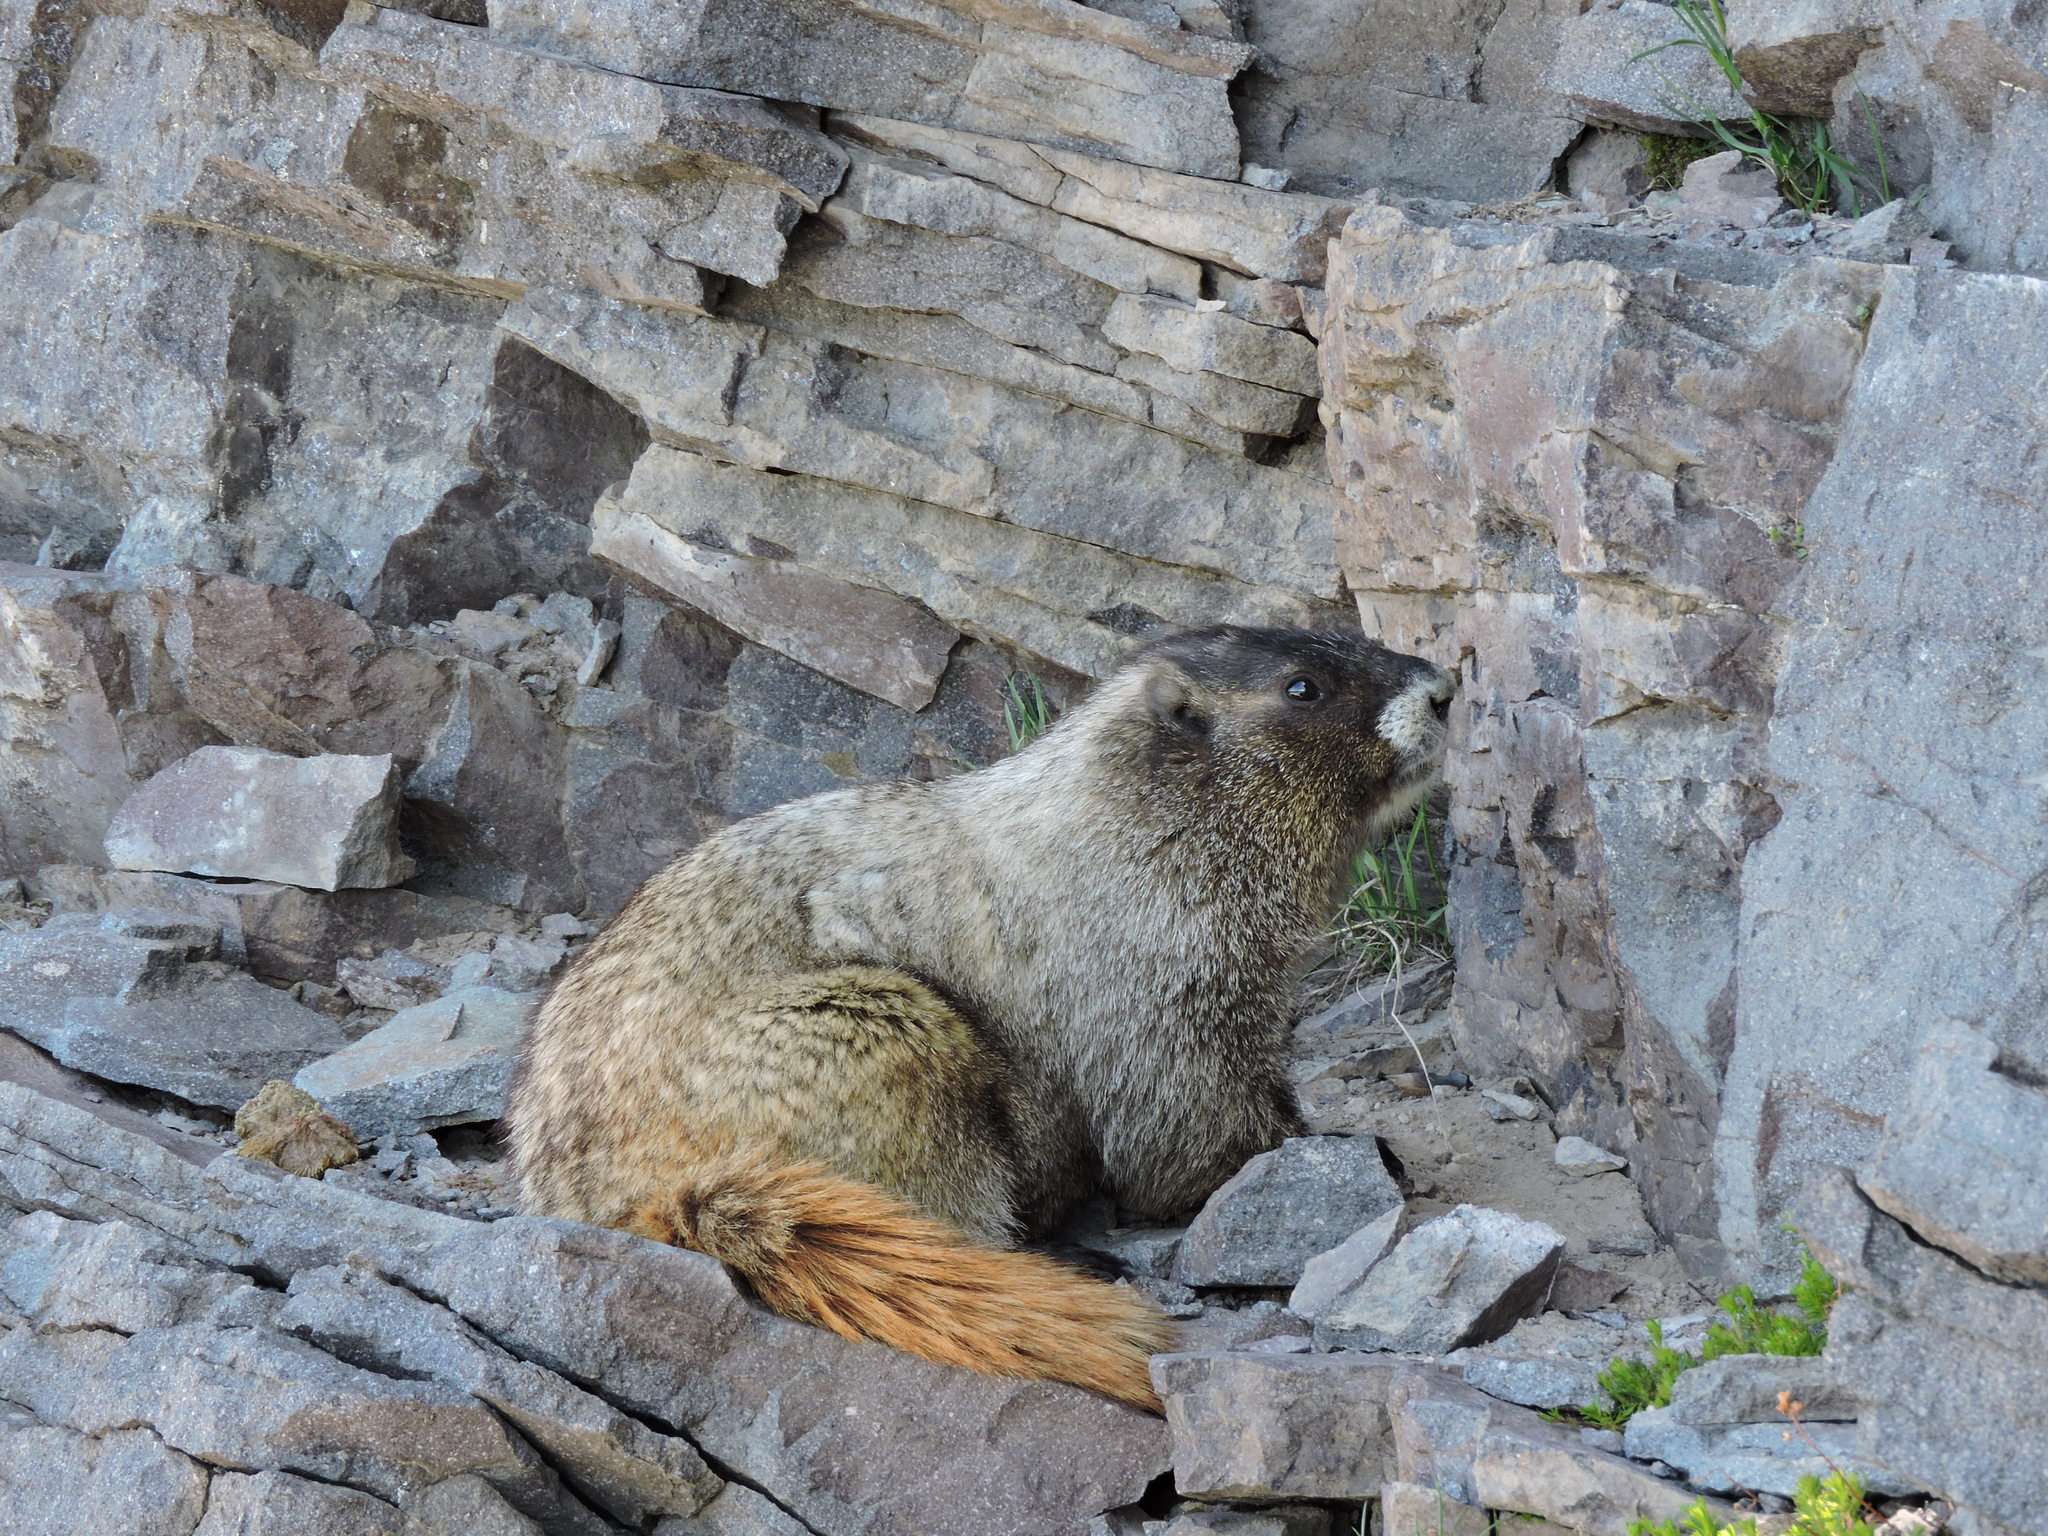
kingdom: Animalia
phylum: Chordata
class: Mammalia
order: Rodentia
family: Sciuridae
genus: Marmota
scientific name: Marmota caligata
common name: Hoary marmot
